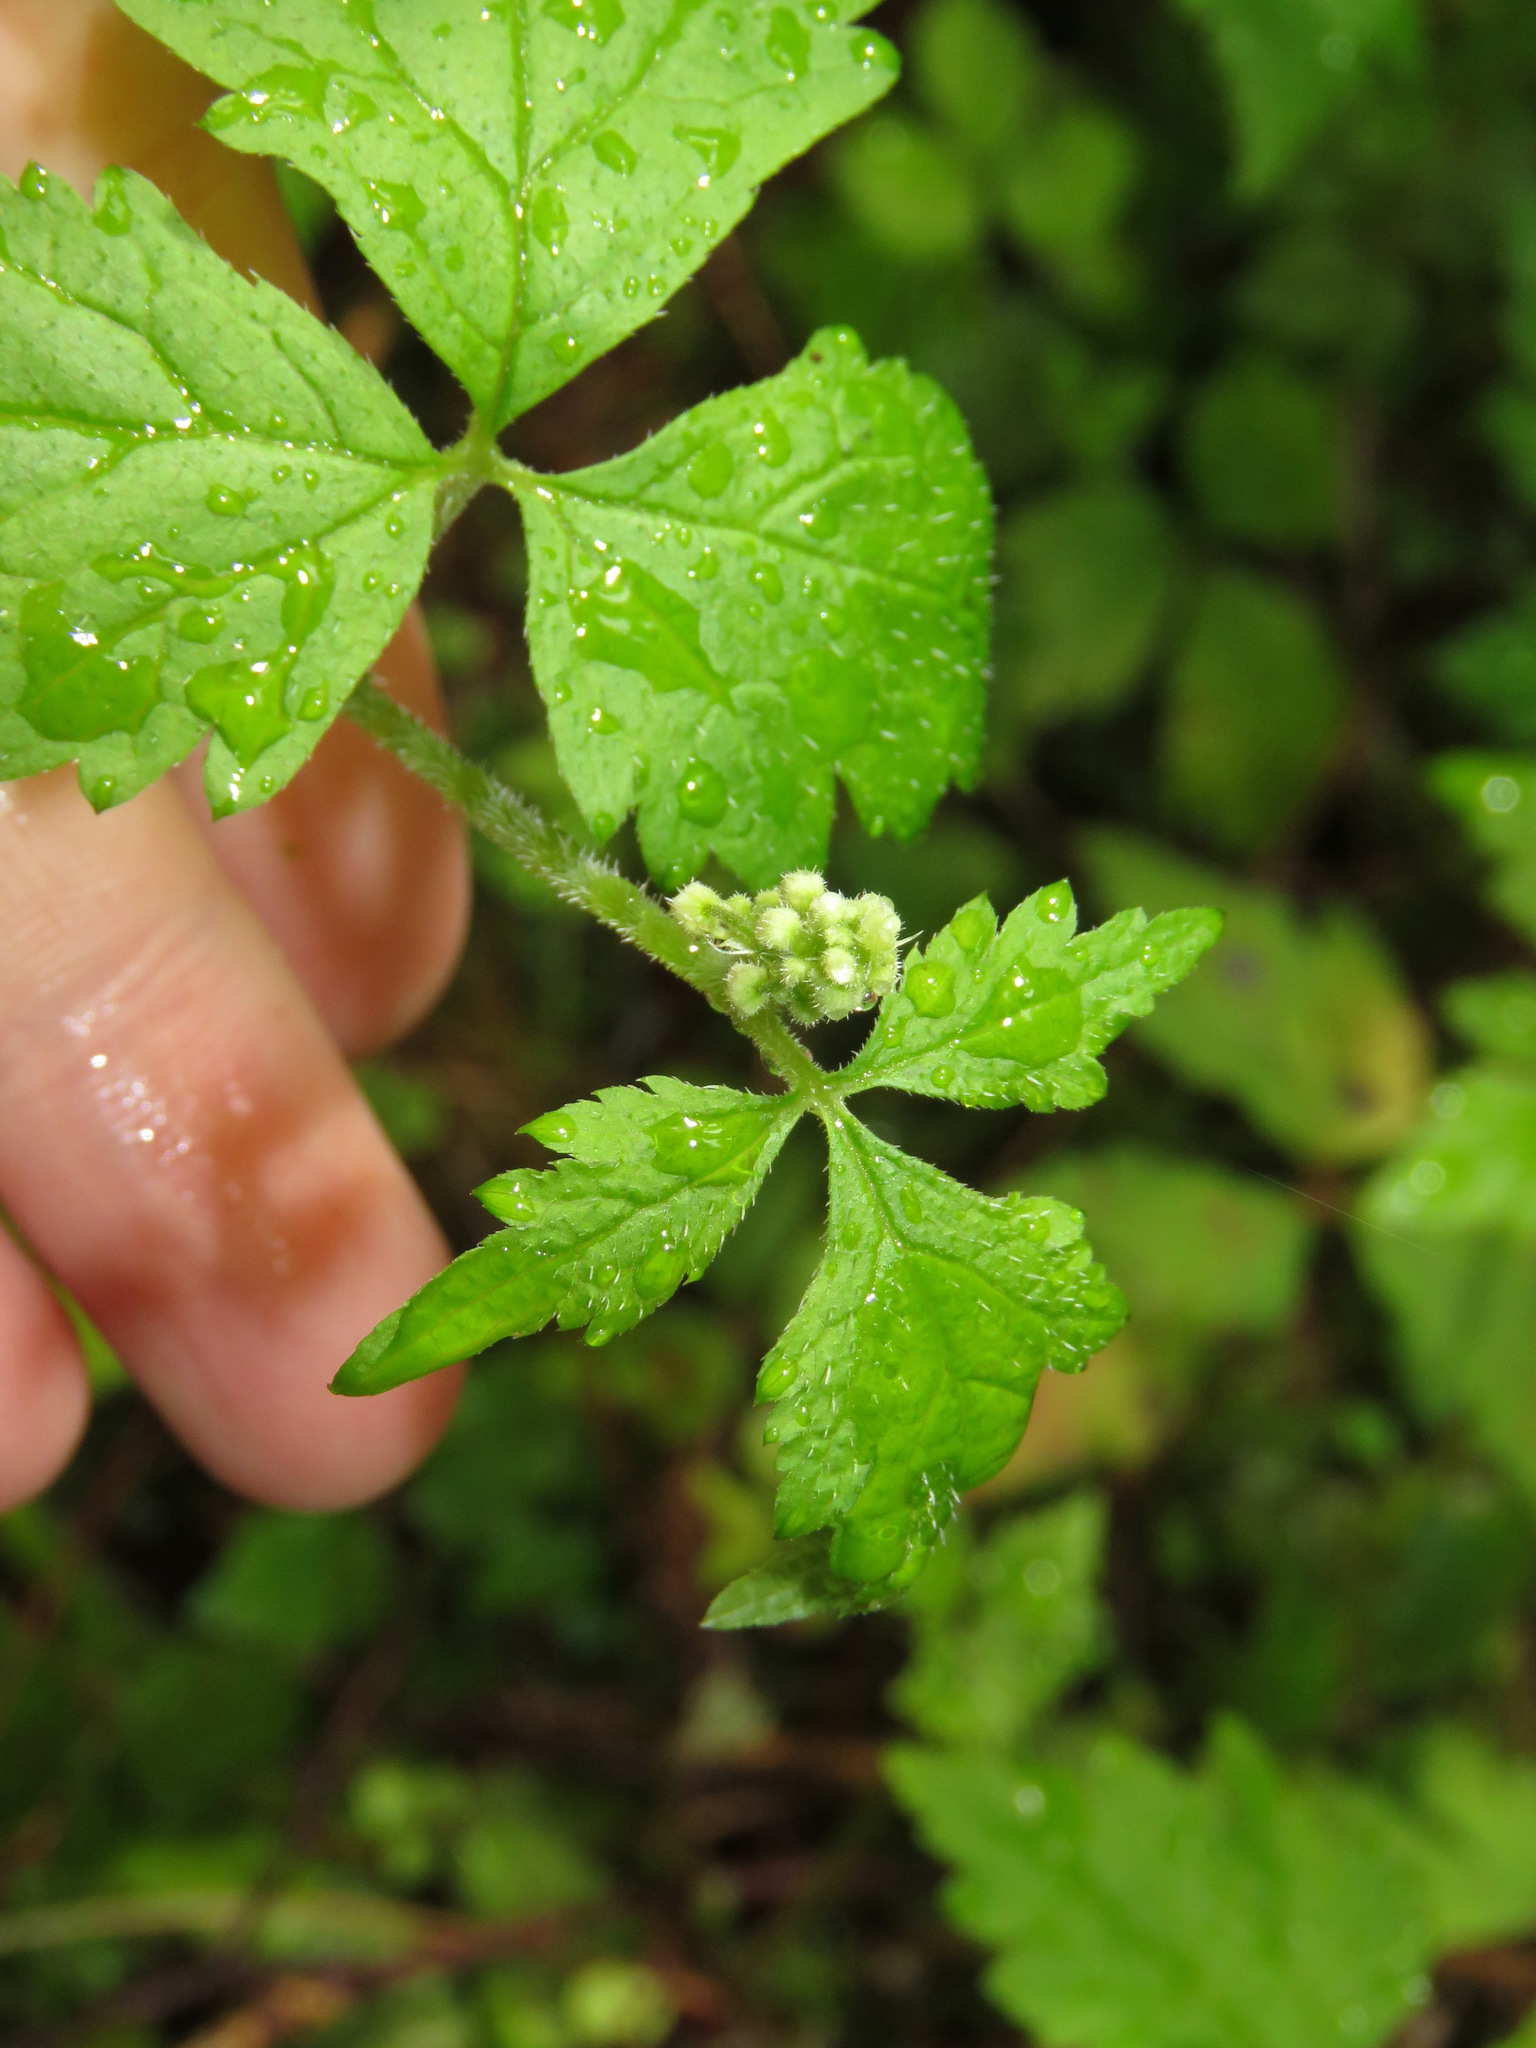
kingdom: Plantae
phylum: Tracheophyta
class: Magnoliopsida
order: Saxifragales
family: Saxifragaceae
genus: Tiarella
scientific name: Tiarella trifoliata
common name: Sugar-scoop
